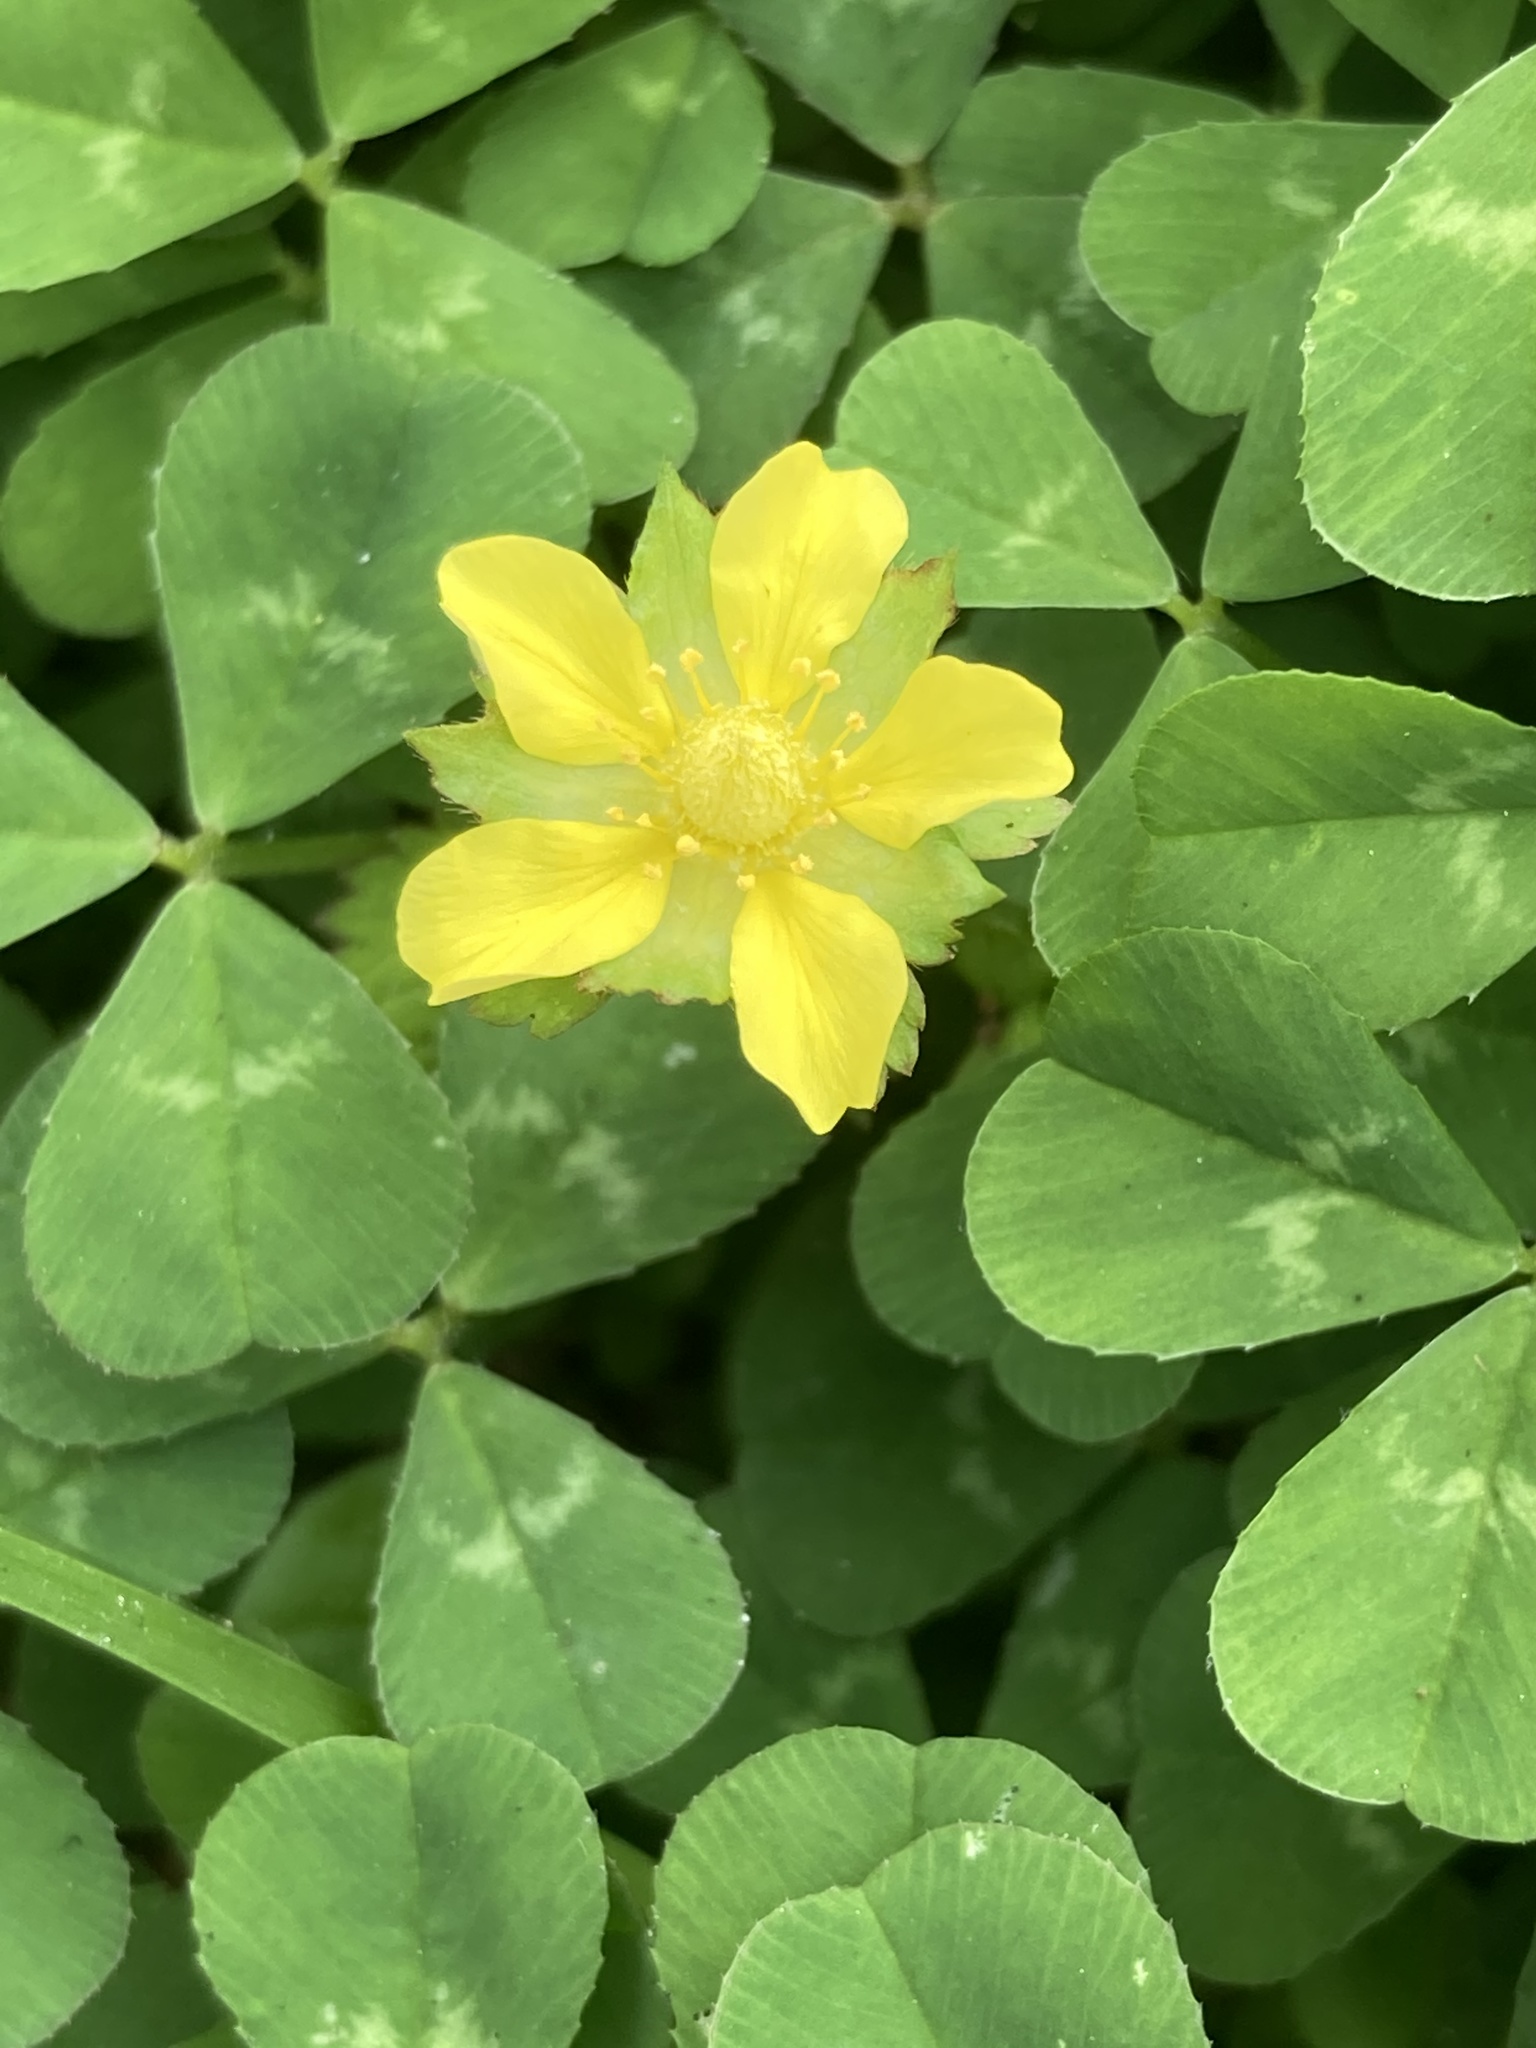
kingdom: Plantae
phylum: Tracheophyta
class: Magnoliopsida
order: Rosales
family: Rosaceae
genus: Potentilla
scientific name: Potentilla indica
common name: Yellow-flowered strawberry
